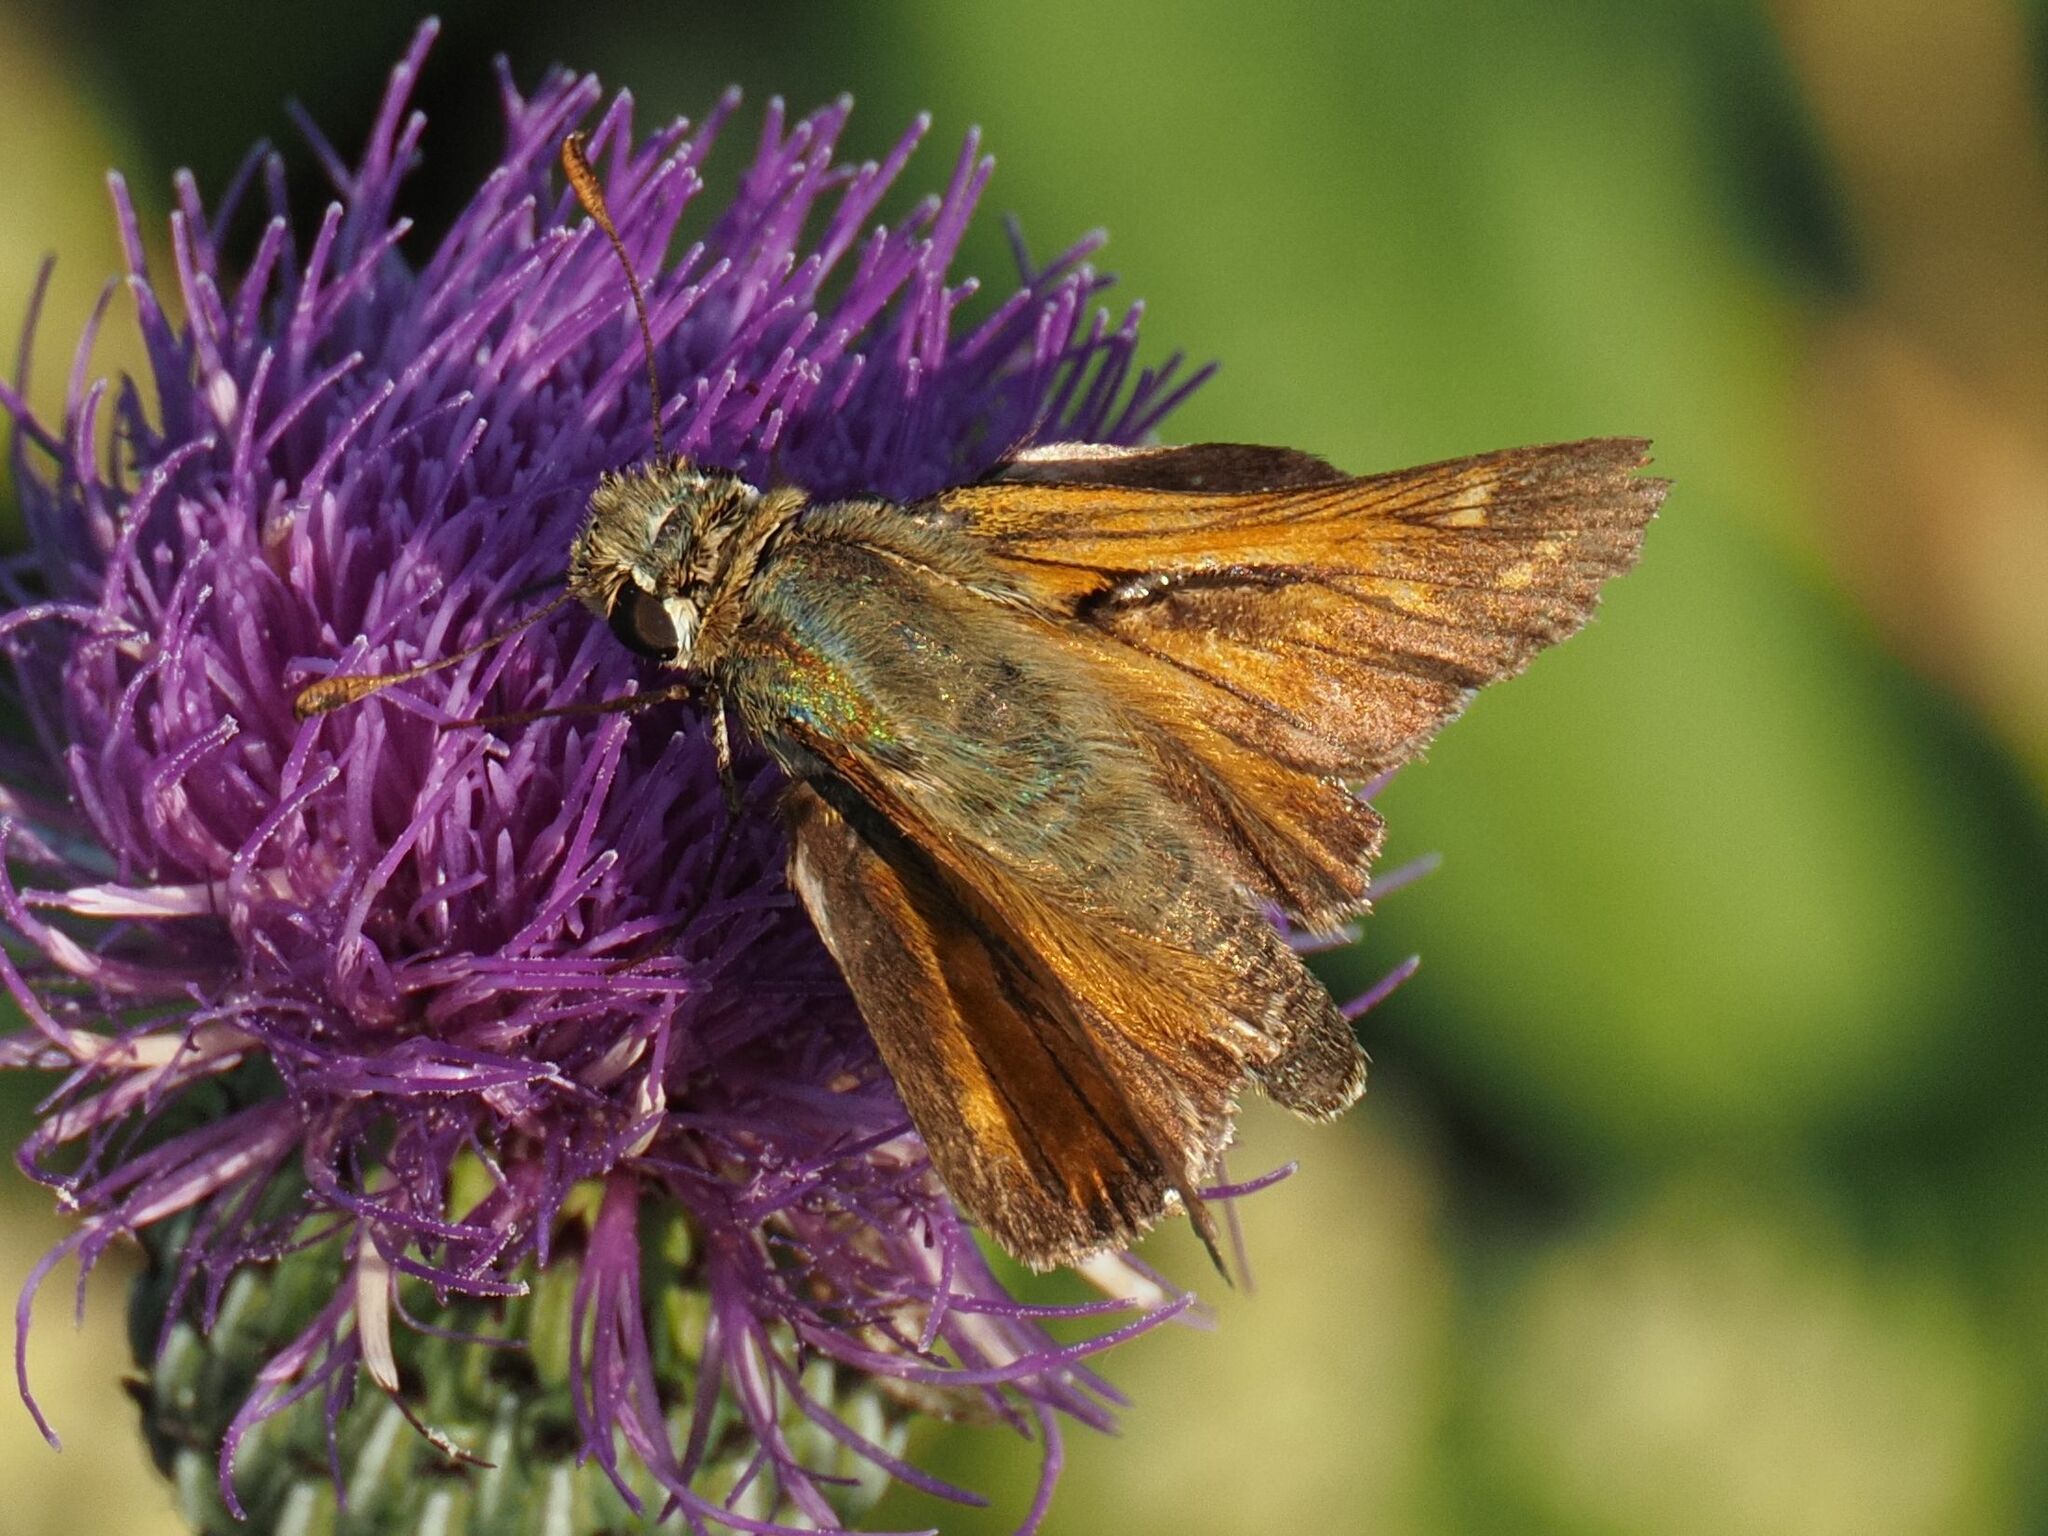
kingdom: Animalia
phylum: Arthropoda
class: Insecta
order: Lepidoptera
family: Hesperiidae
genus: Hesperia
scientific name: Hesperia comma
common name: Common branded skipper
